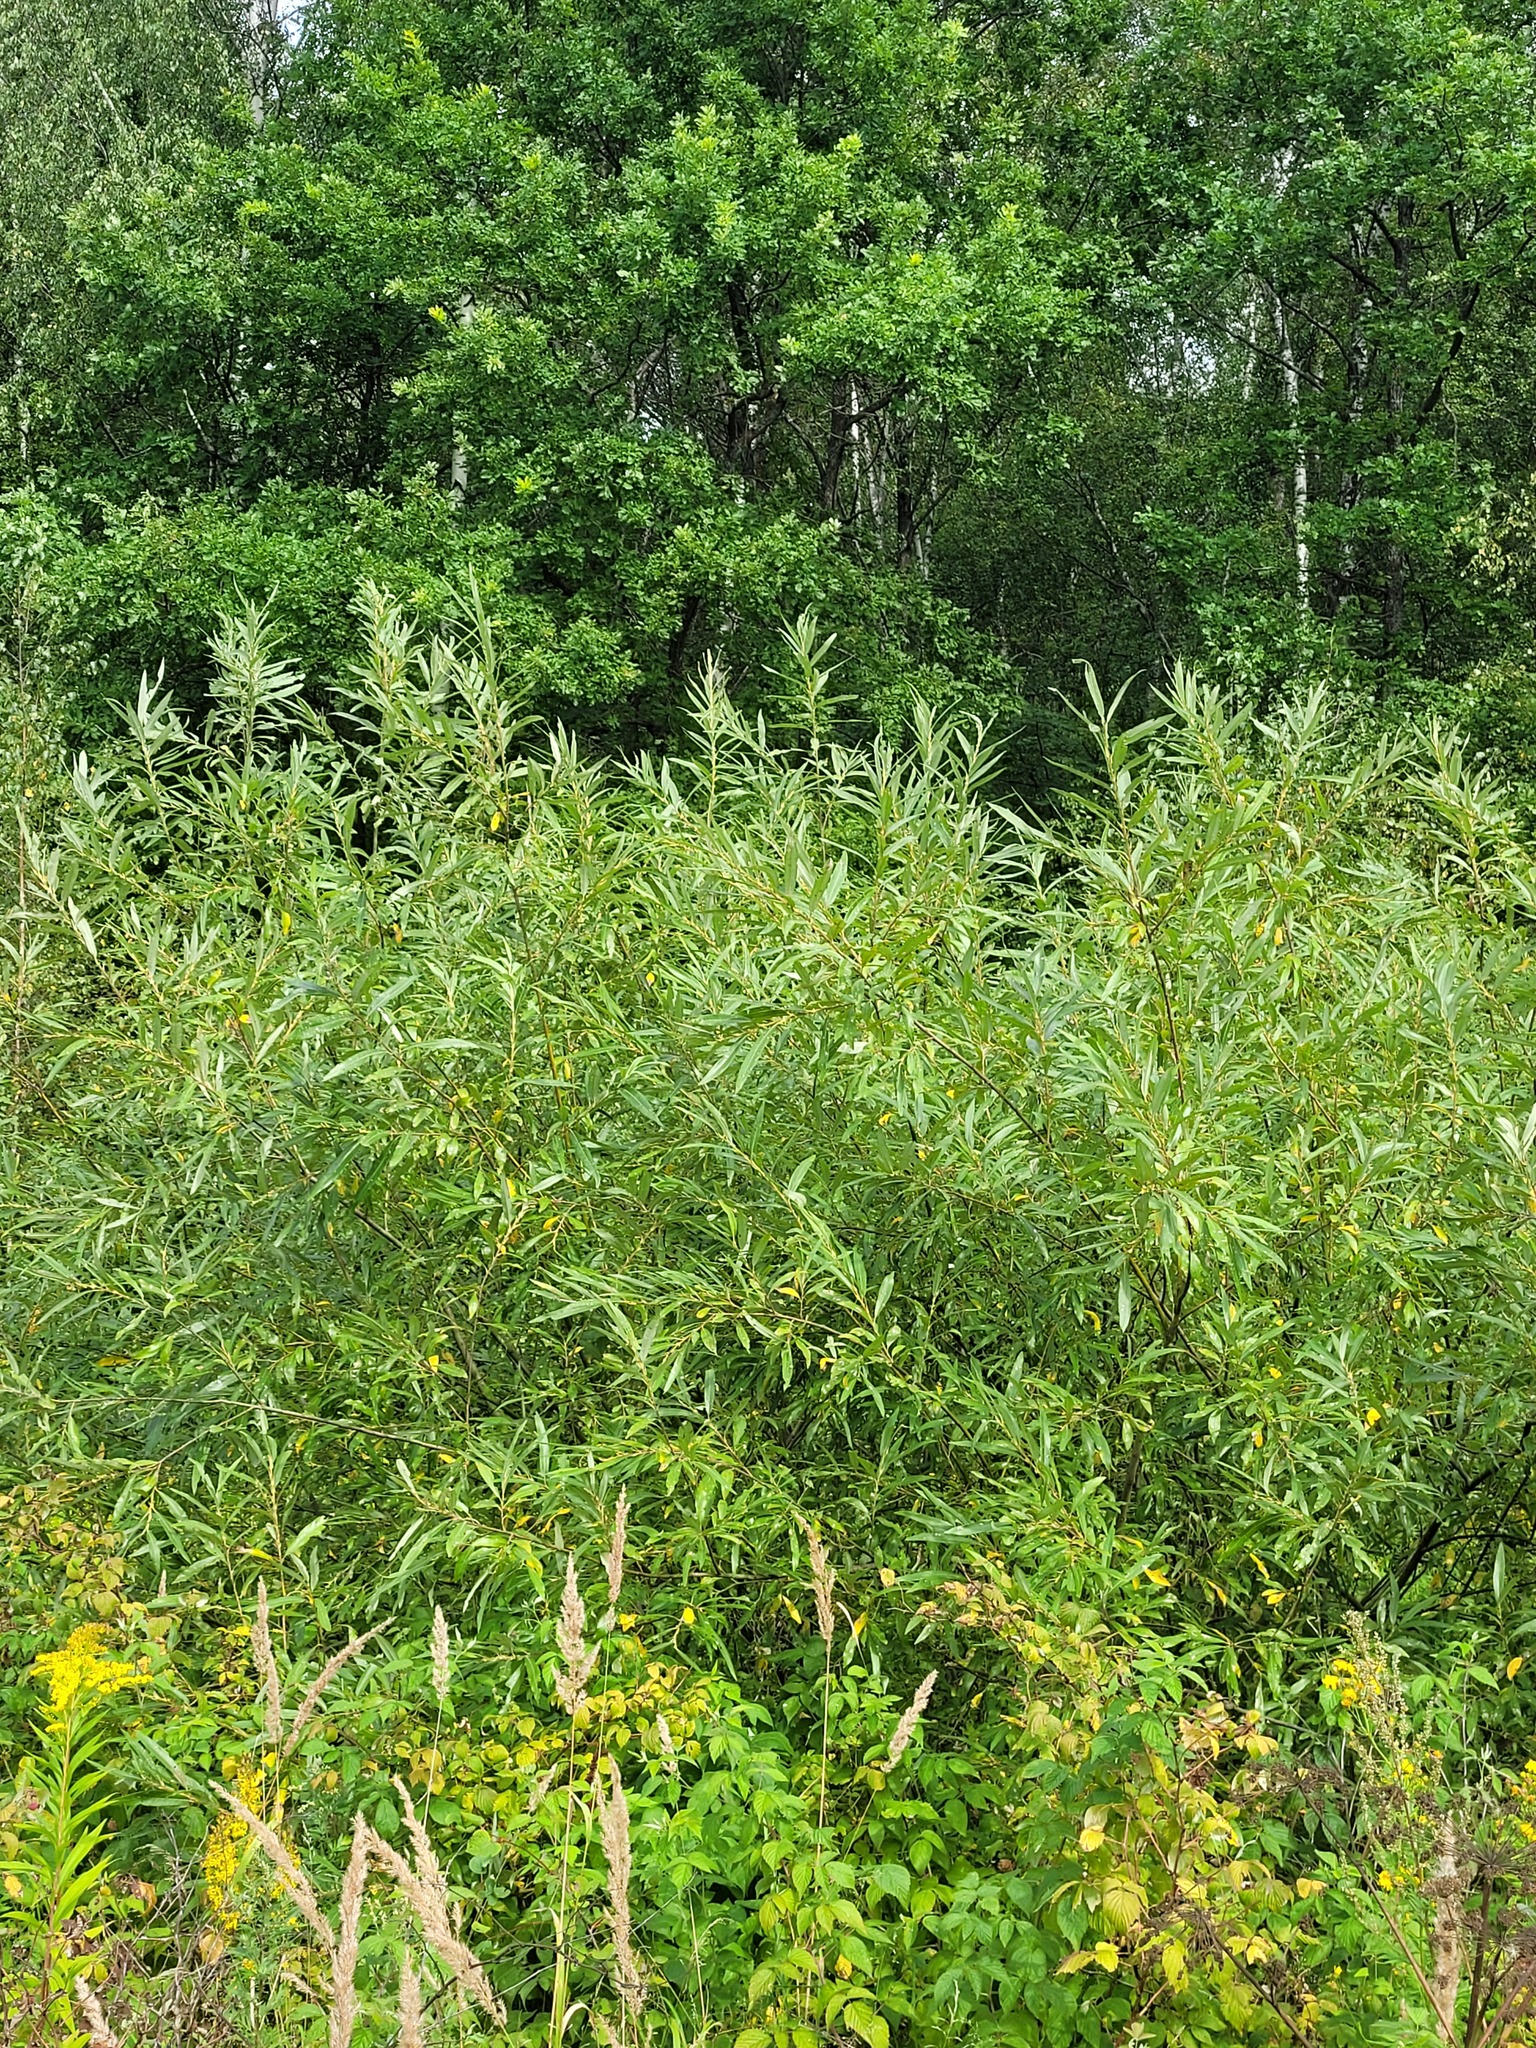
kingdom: Plantae
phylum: Tracheophyta
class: Magnoliopsida
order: Malpighiales
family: Salicaceae
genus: Salix
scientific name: Salix viminalis
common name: Osier
